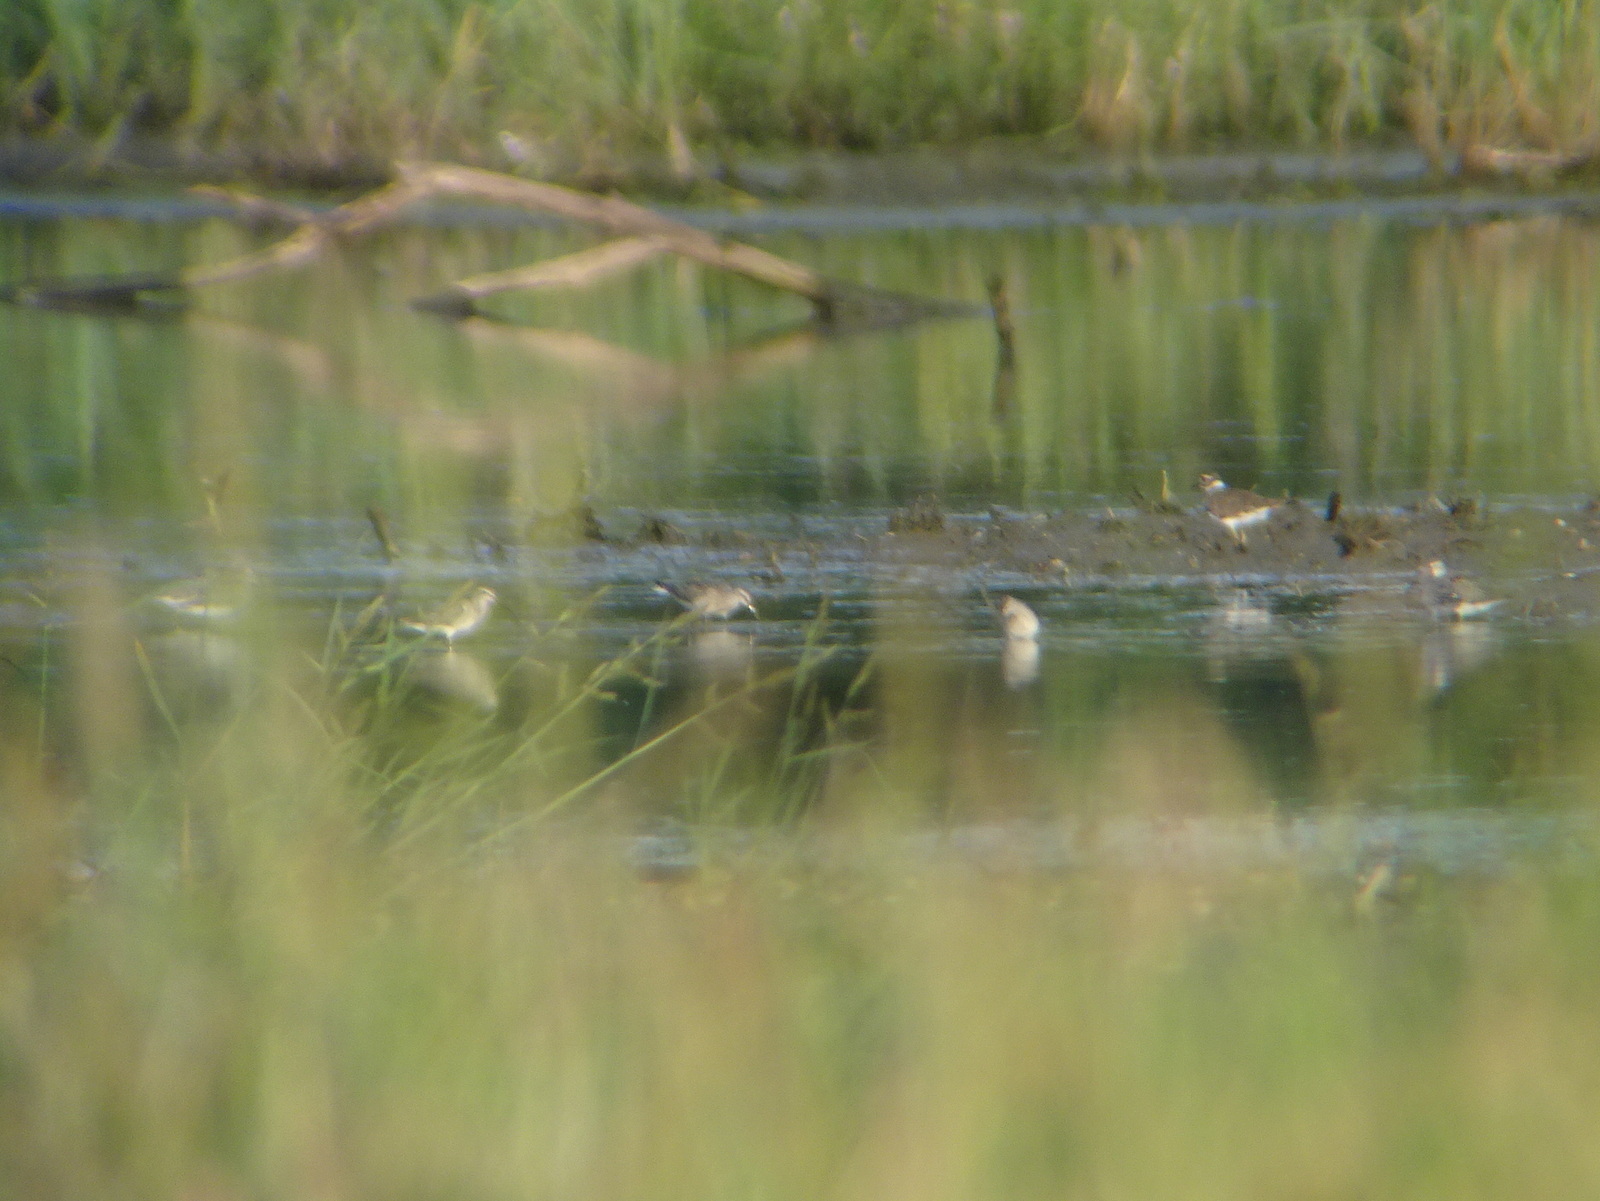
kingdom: Animalia
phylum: Chordata
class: Aves
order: Charadriiformes
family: Scolopacidae
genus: Calidris
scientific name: Calidris himantopus
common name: Stilt sandpiper
